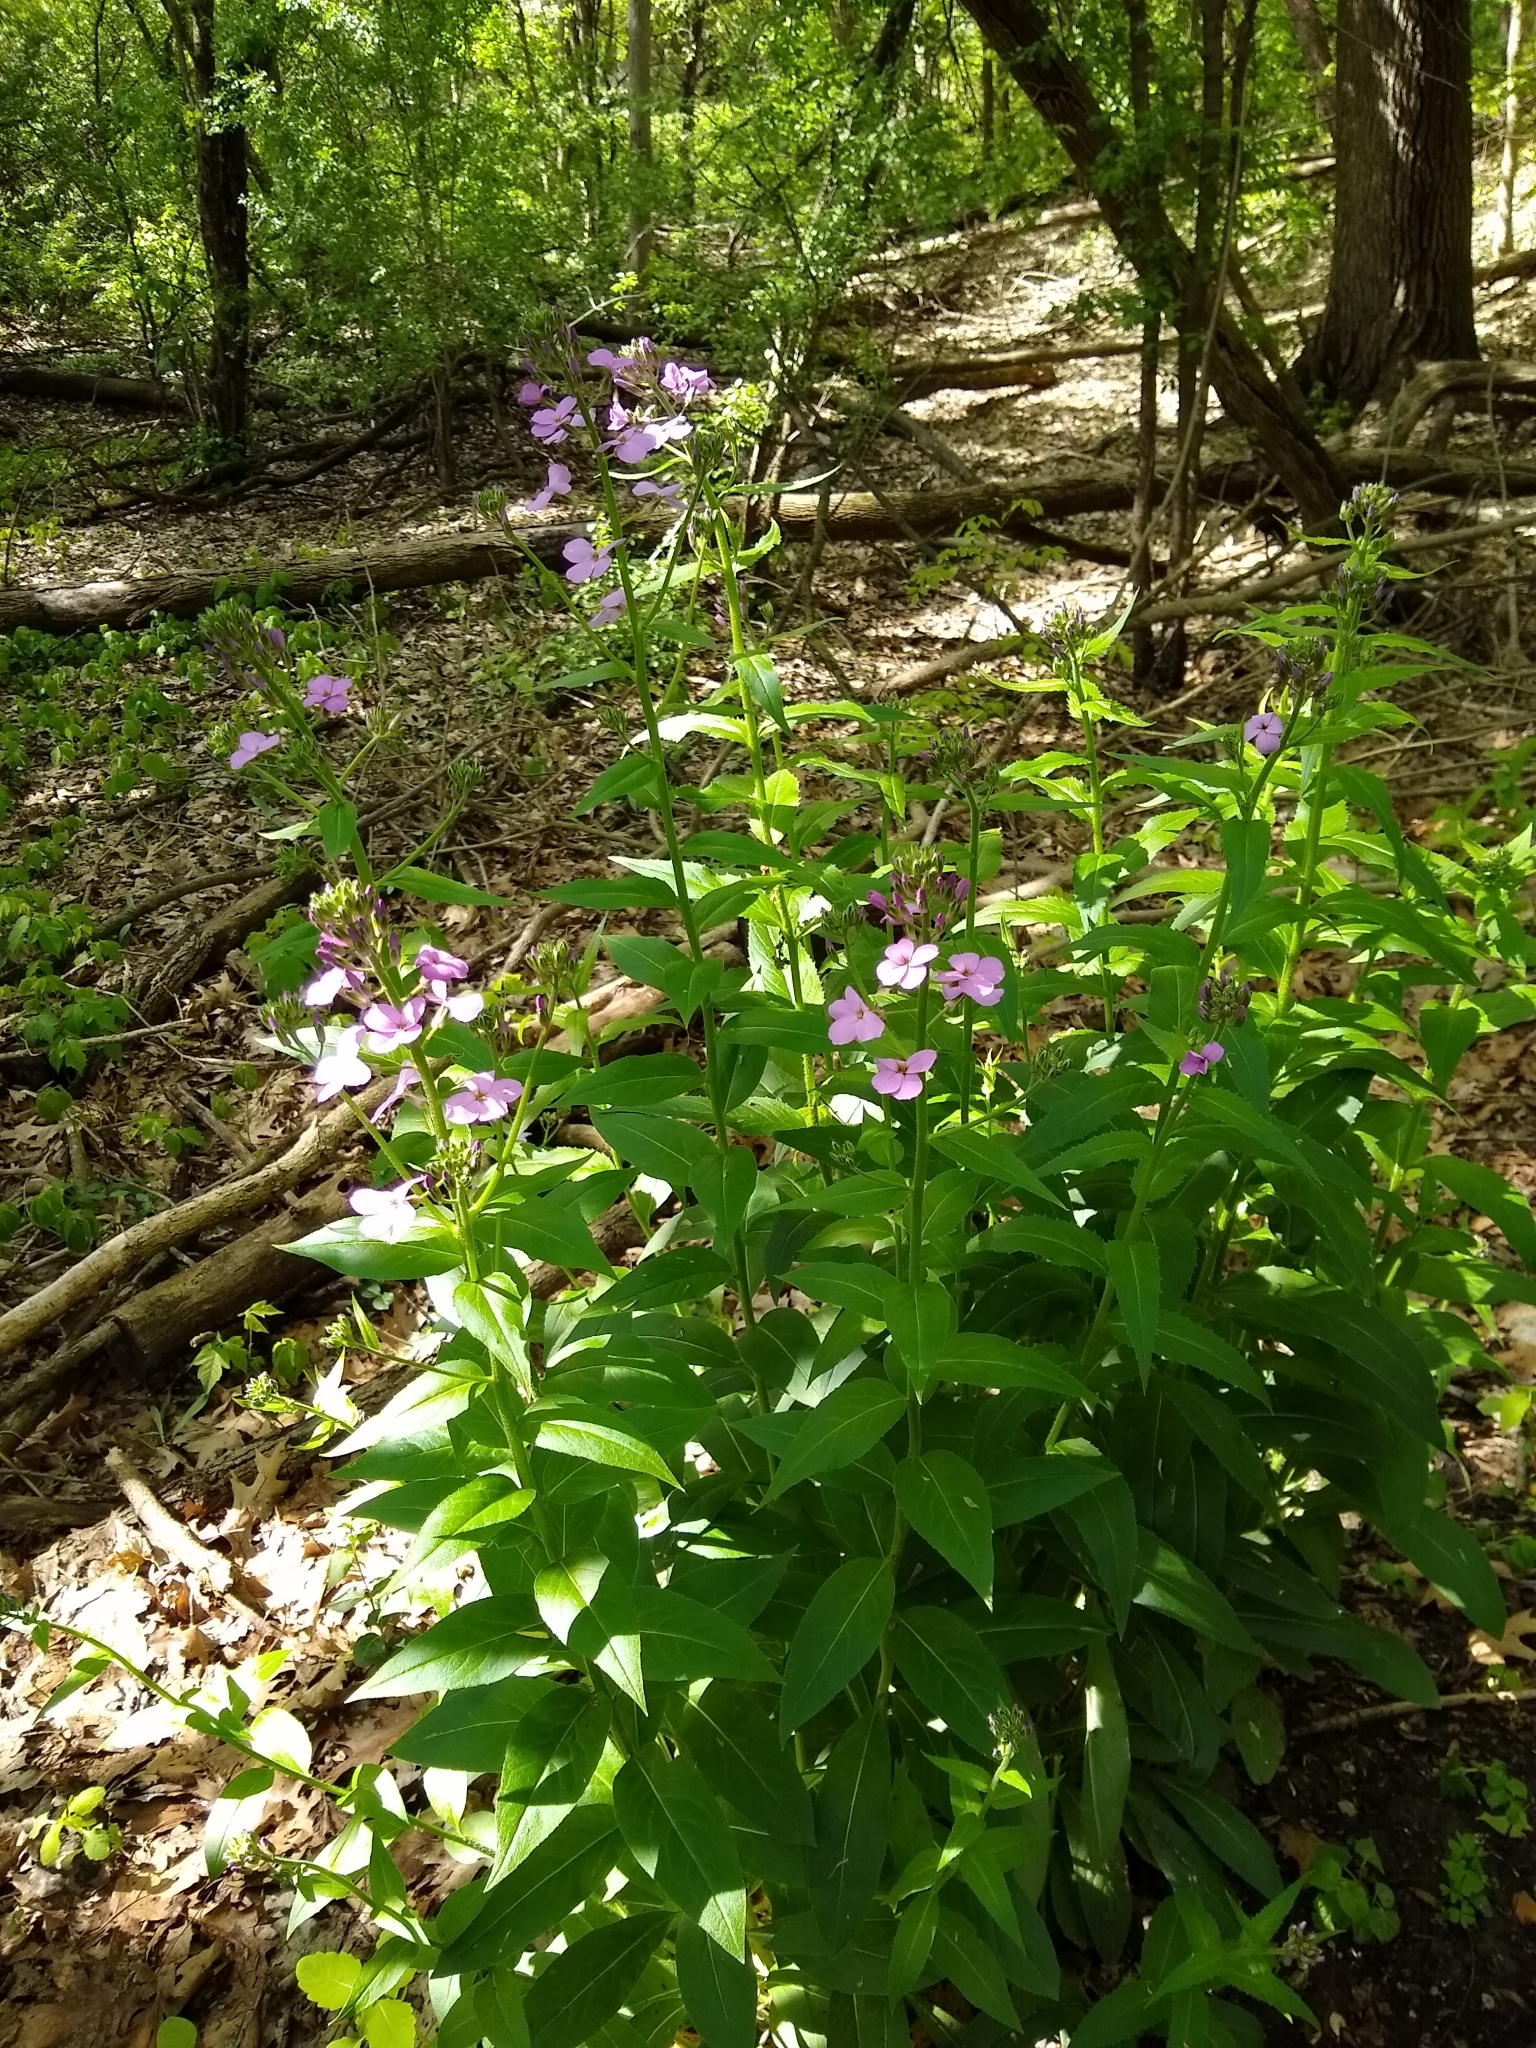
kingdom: Plantae
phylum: Tracheophyta
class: Magnoliopsida
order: Brassicales
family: Brassicaceae
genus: Hesperis
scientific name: Hesperis matronalis
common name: Dame's-violet
